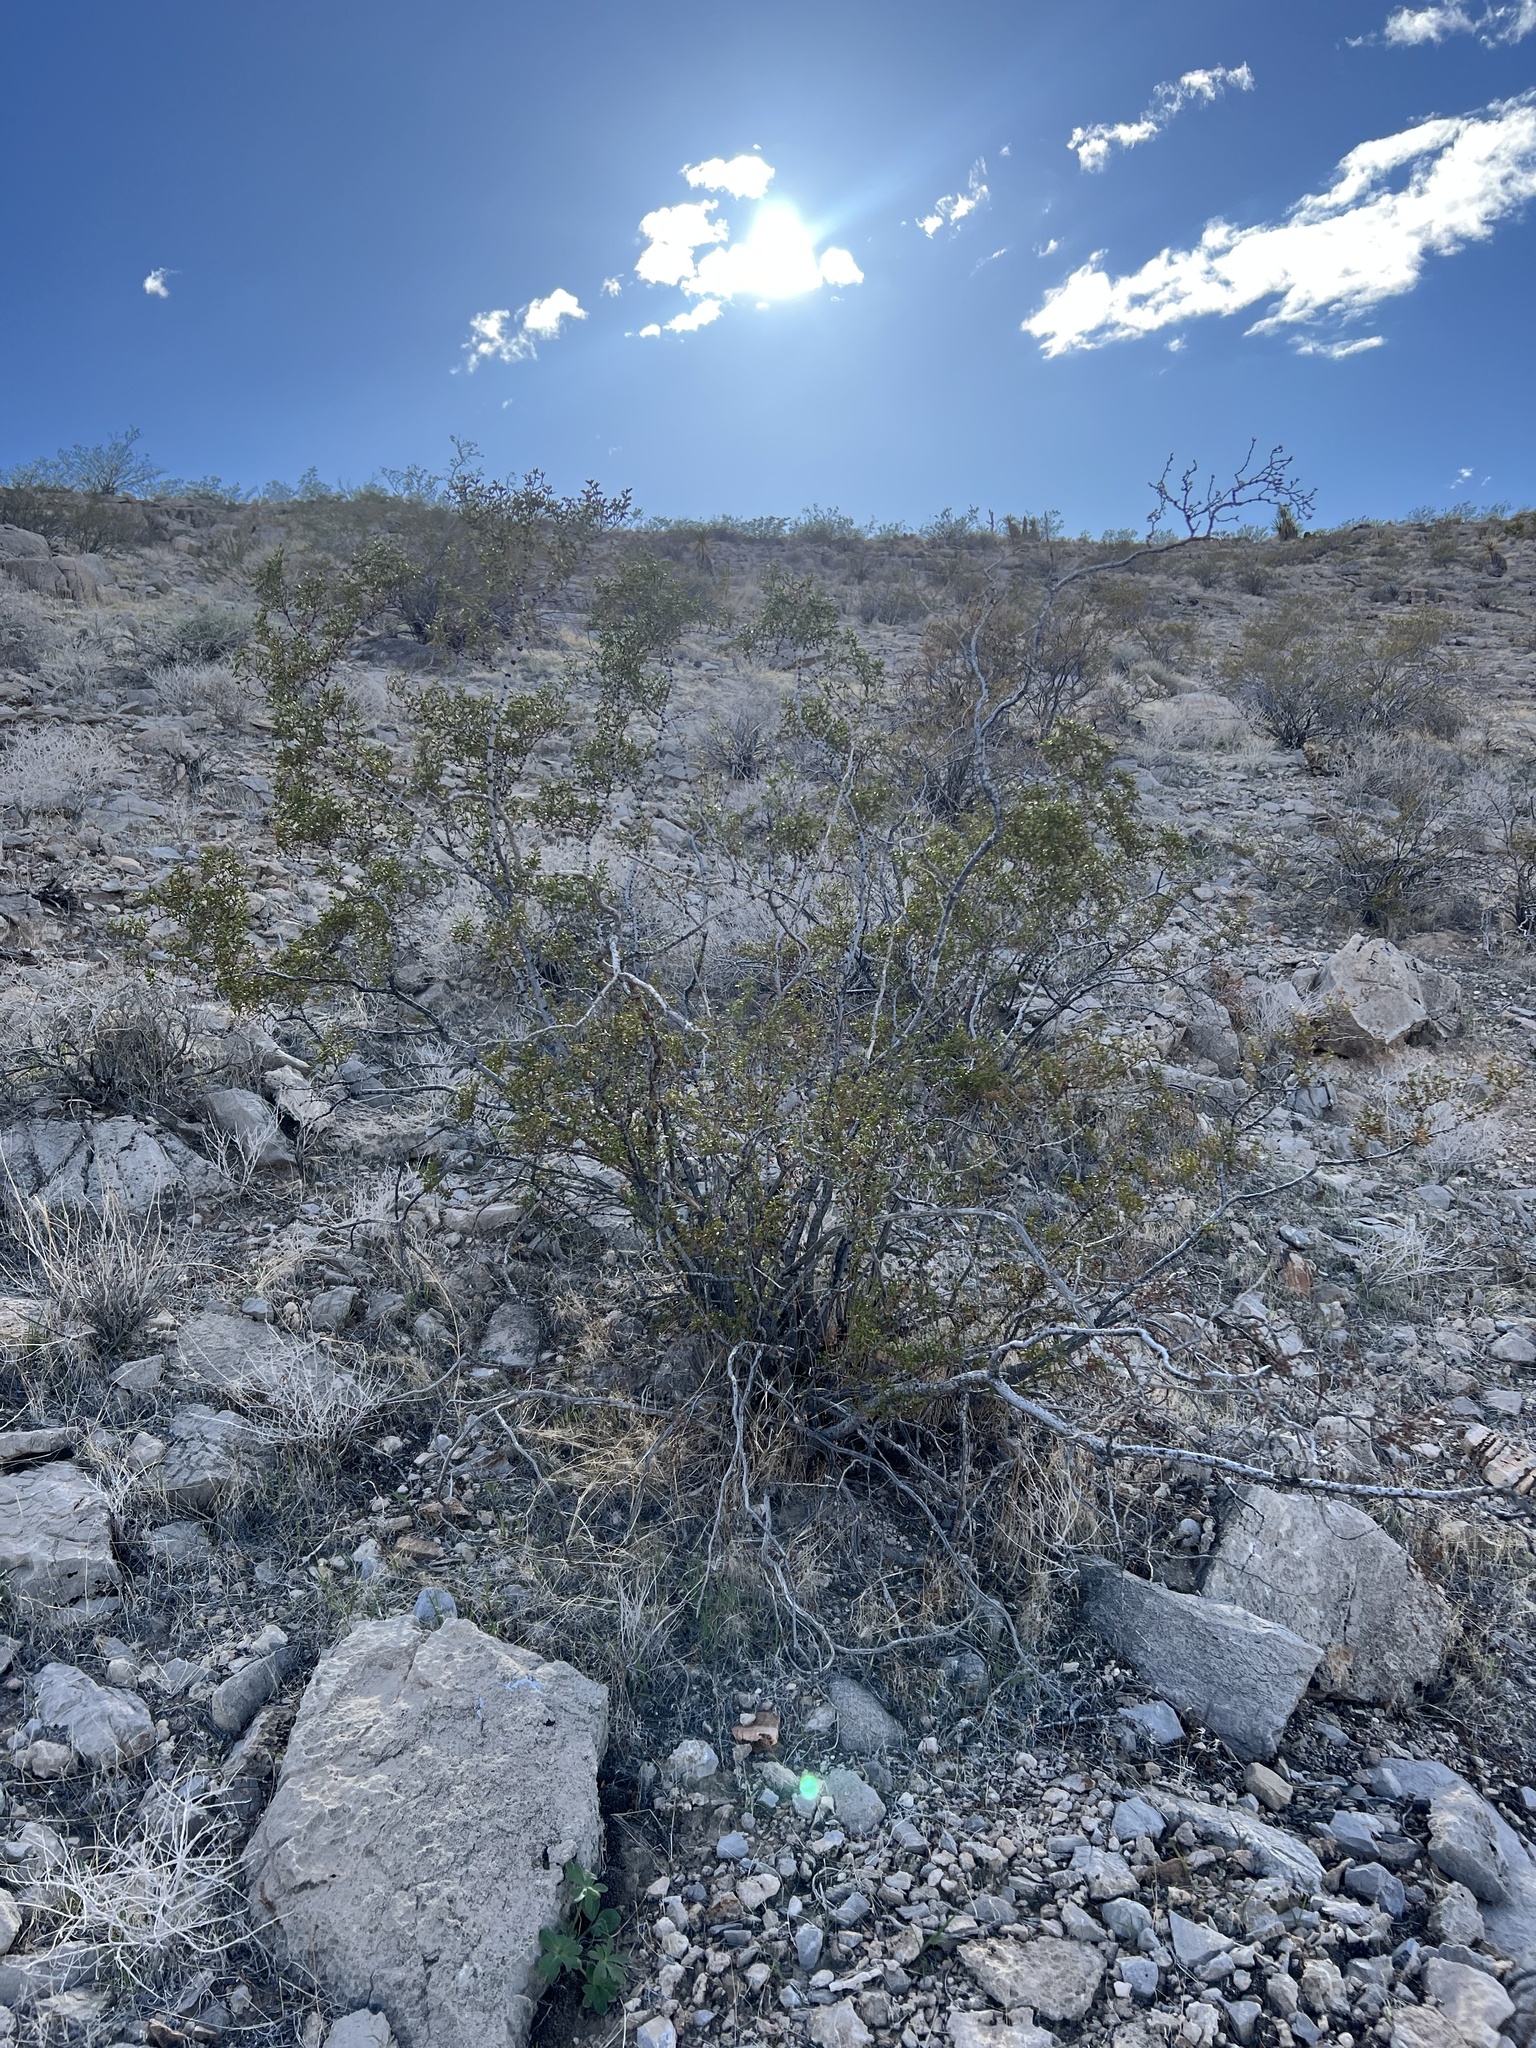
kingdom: Plantae
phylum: Tracheophyta
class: Magnoliopsida
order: Zygophyllales
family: Zygophyllaceae
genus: Larrea
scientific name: Larrea tridentata
